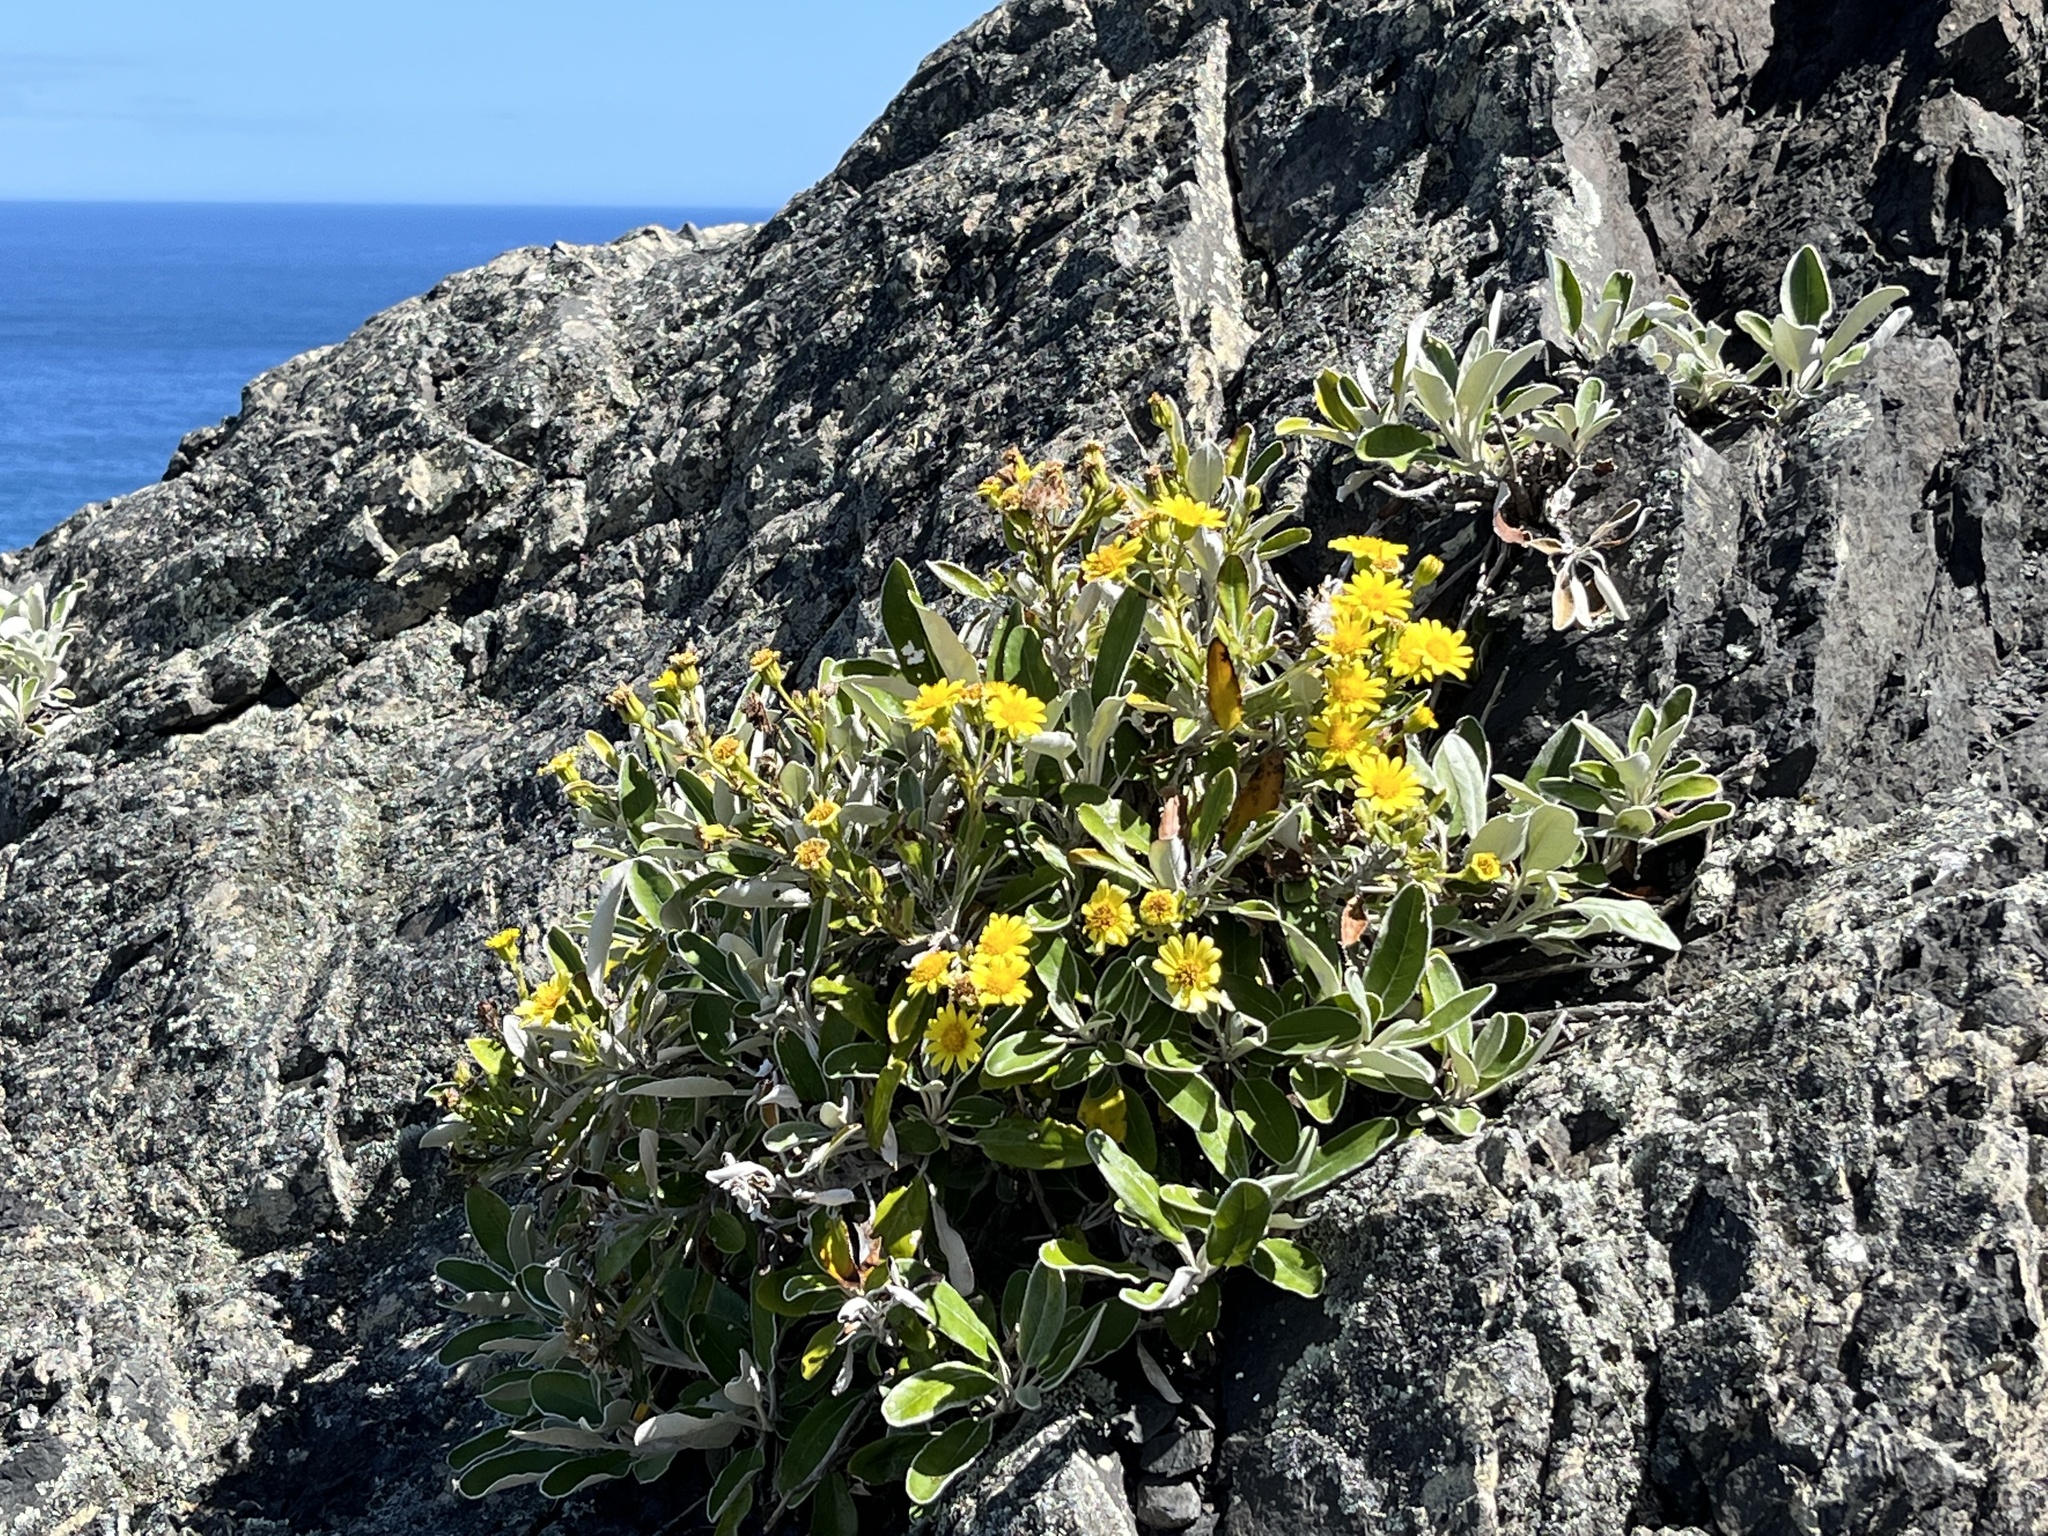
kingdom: Plantae
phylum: Tracheophyta
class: Magnoliopsida
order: Asterales
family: Asteraceae
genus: Brachyglottis
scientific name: Brachyglottis greyi
